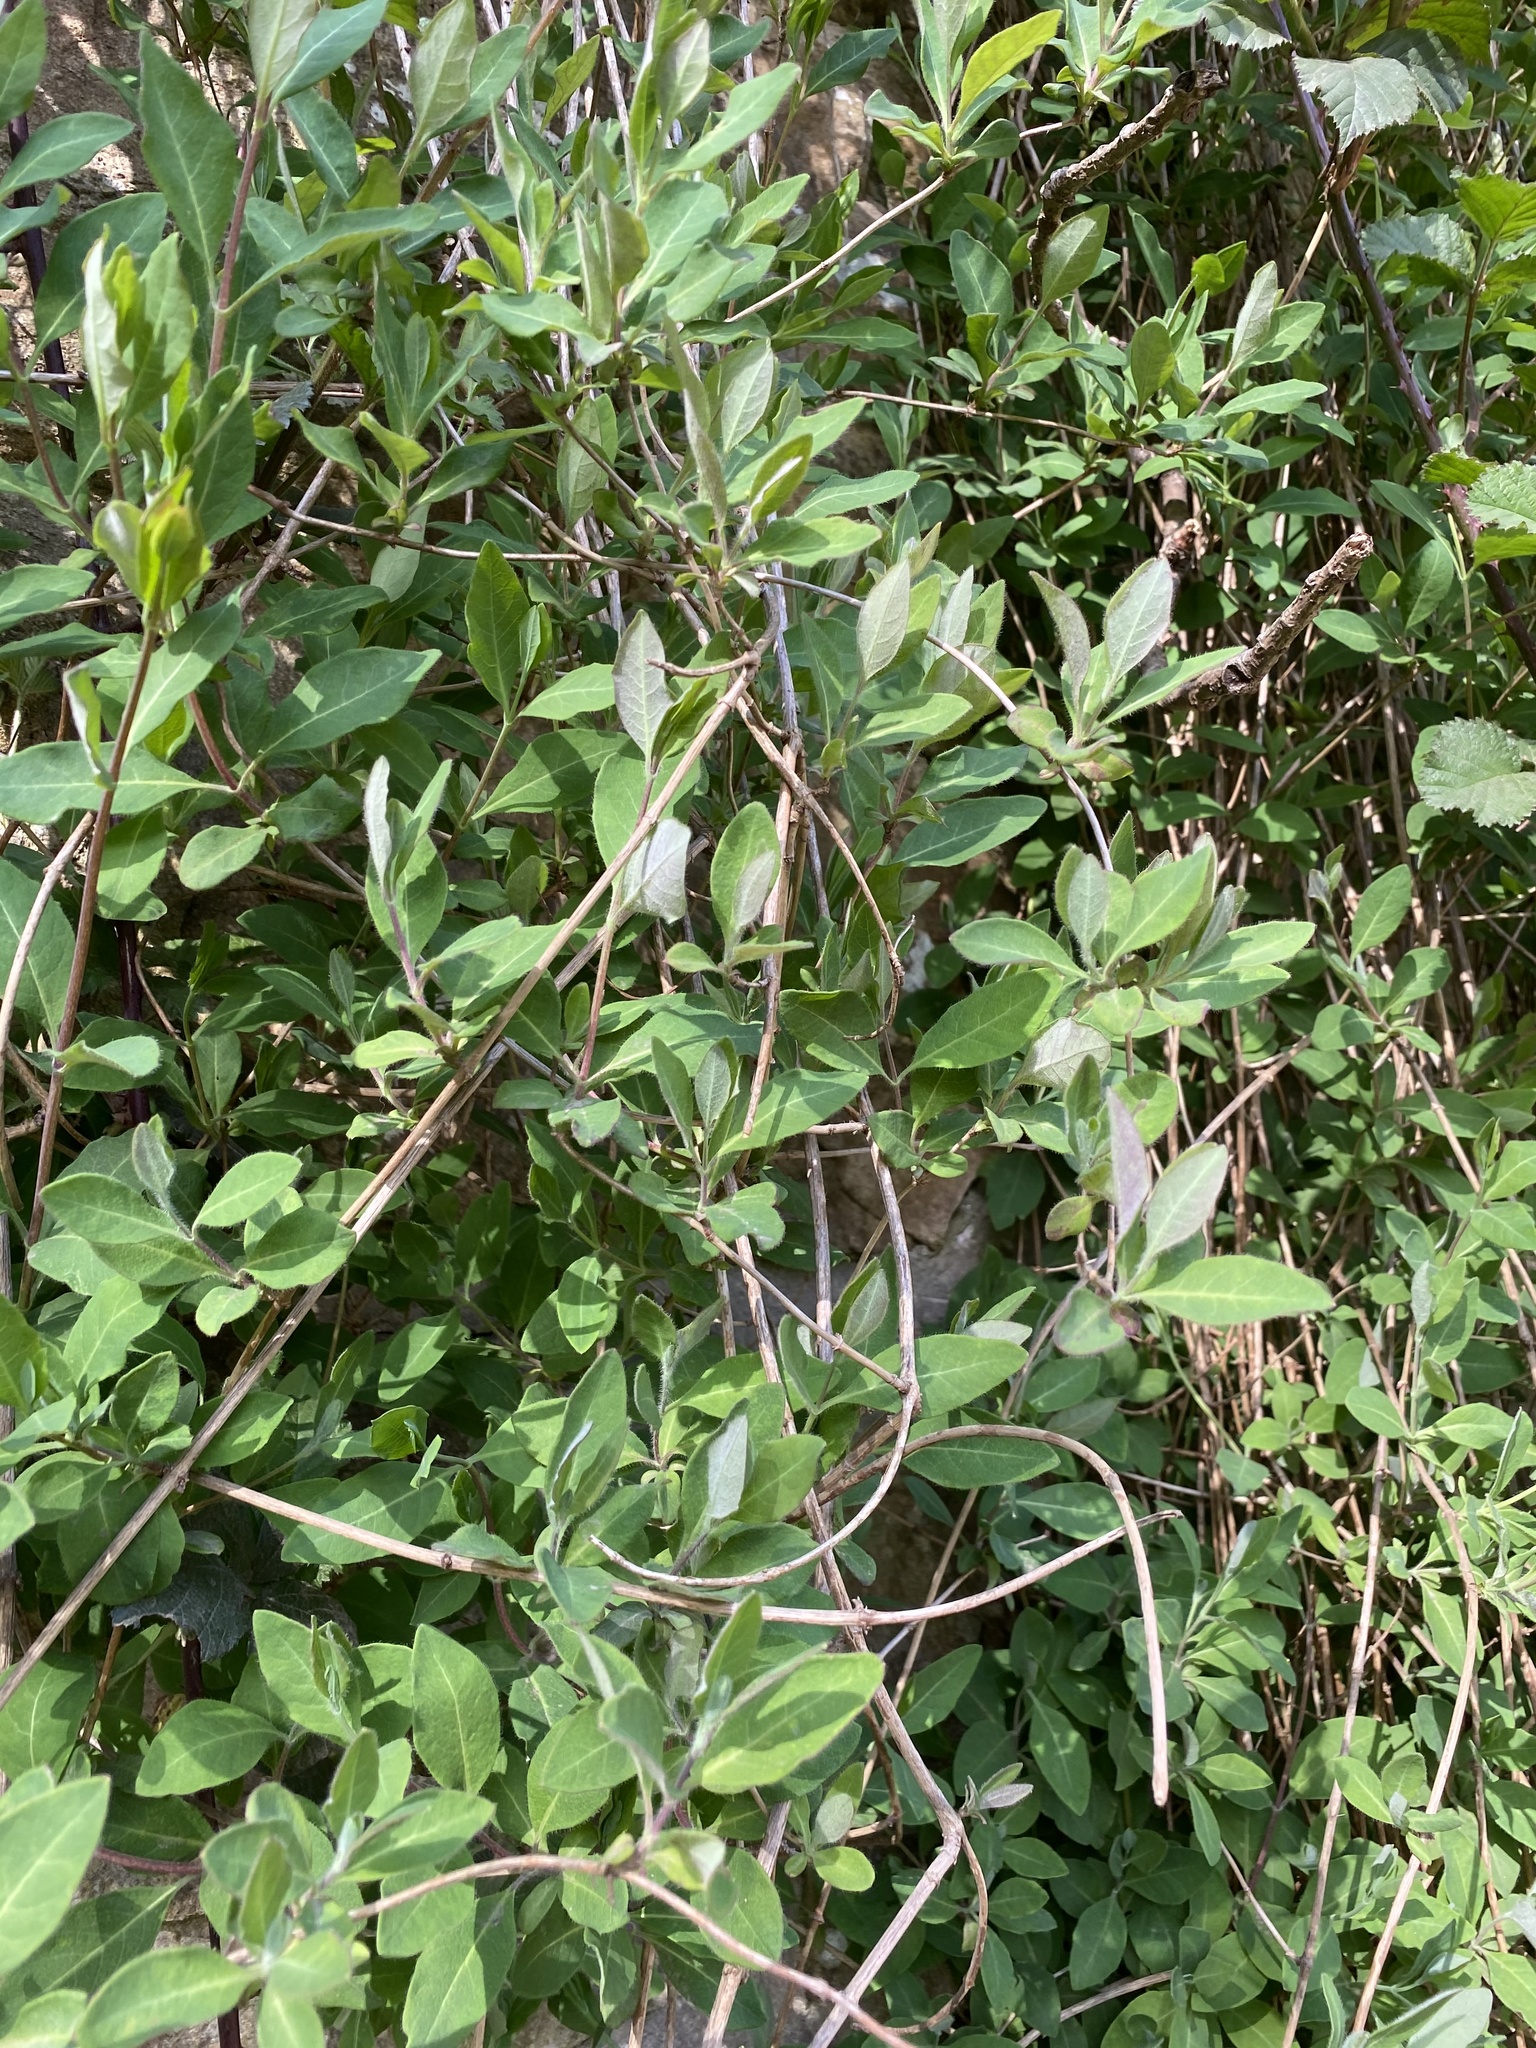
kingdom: Plantae
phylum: Tracheophyta
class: Magnoliopsida
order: Dipsacales
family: Caprifoliaceae
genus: Lonicera
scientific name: Lonicera periclymenum
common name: European honeysuckle
